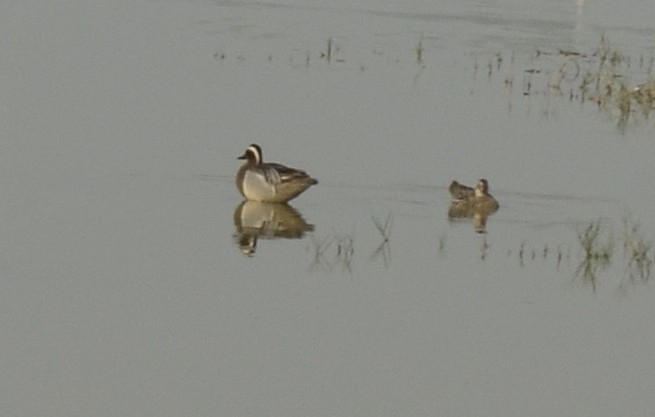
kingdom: Animalia
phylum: Chordata
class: Aves
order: Anseriformes
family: Anatidae
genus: Spatula
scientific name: Spatula querquedula
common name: Garganey
